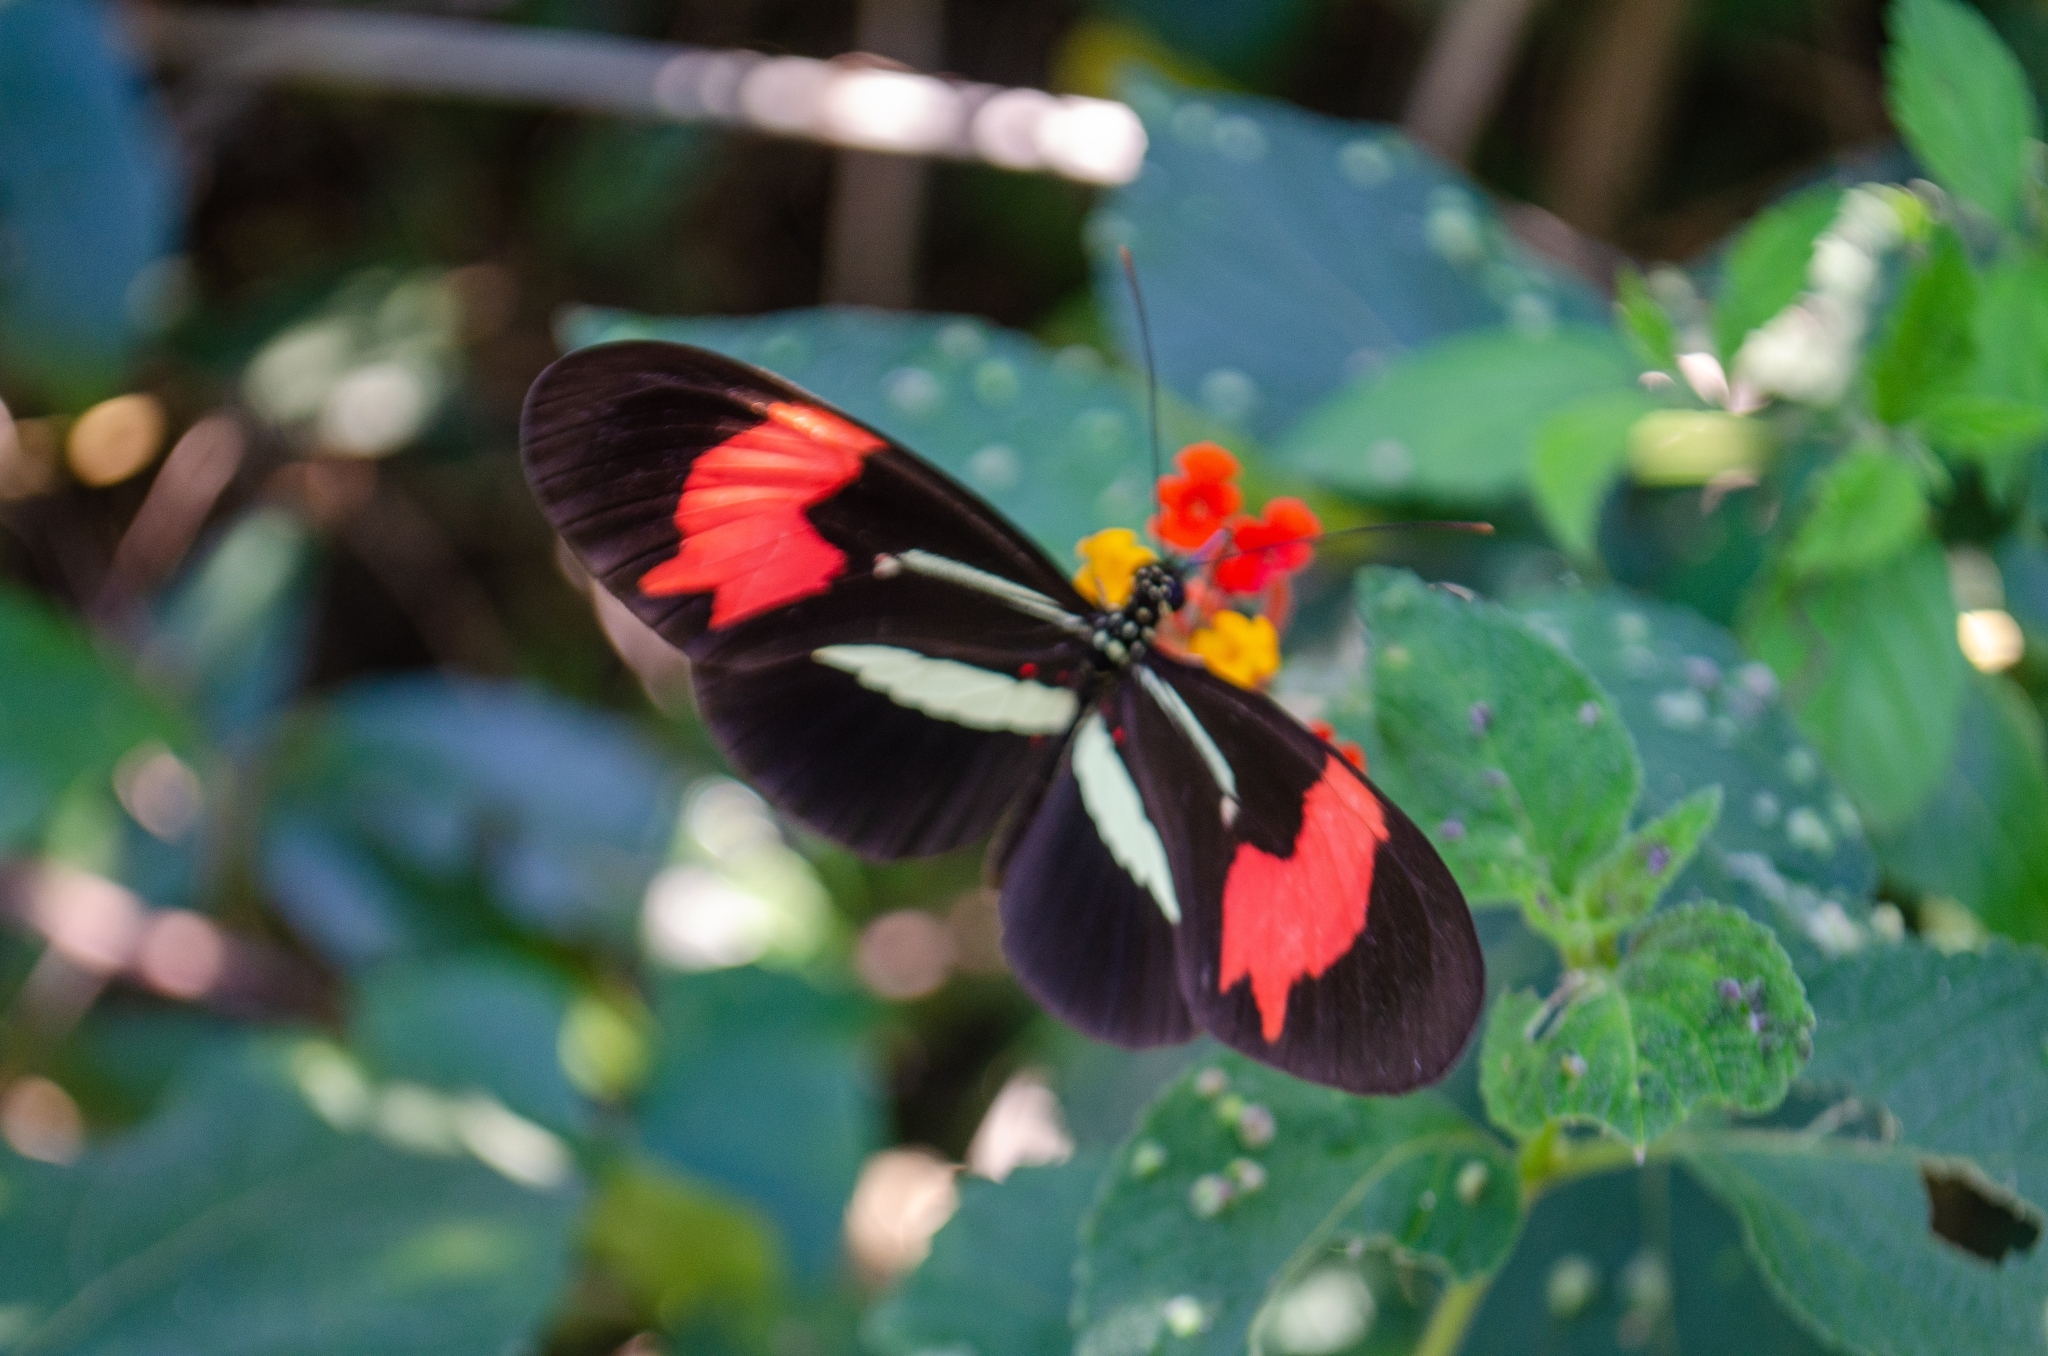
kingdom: Animalia
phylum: Arthropoda
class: Insecta
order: Lepidoptera
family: Nymphalidae
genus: Heliconius
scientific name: Heliconius erato
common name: Common patch longwing
